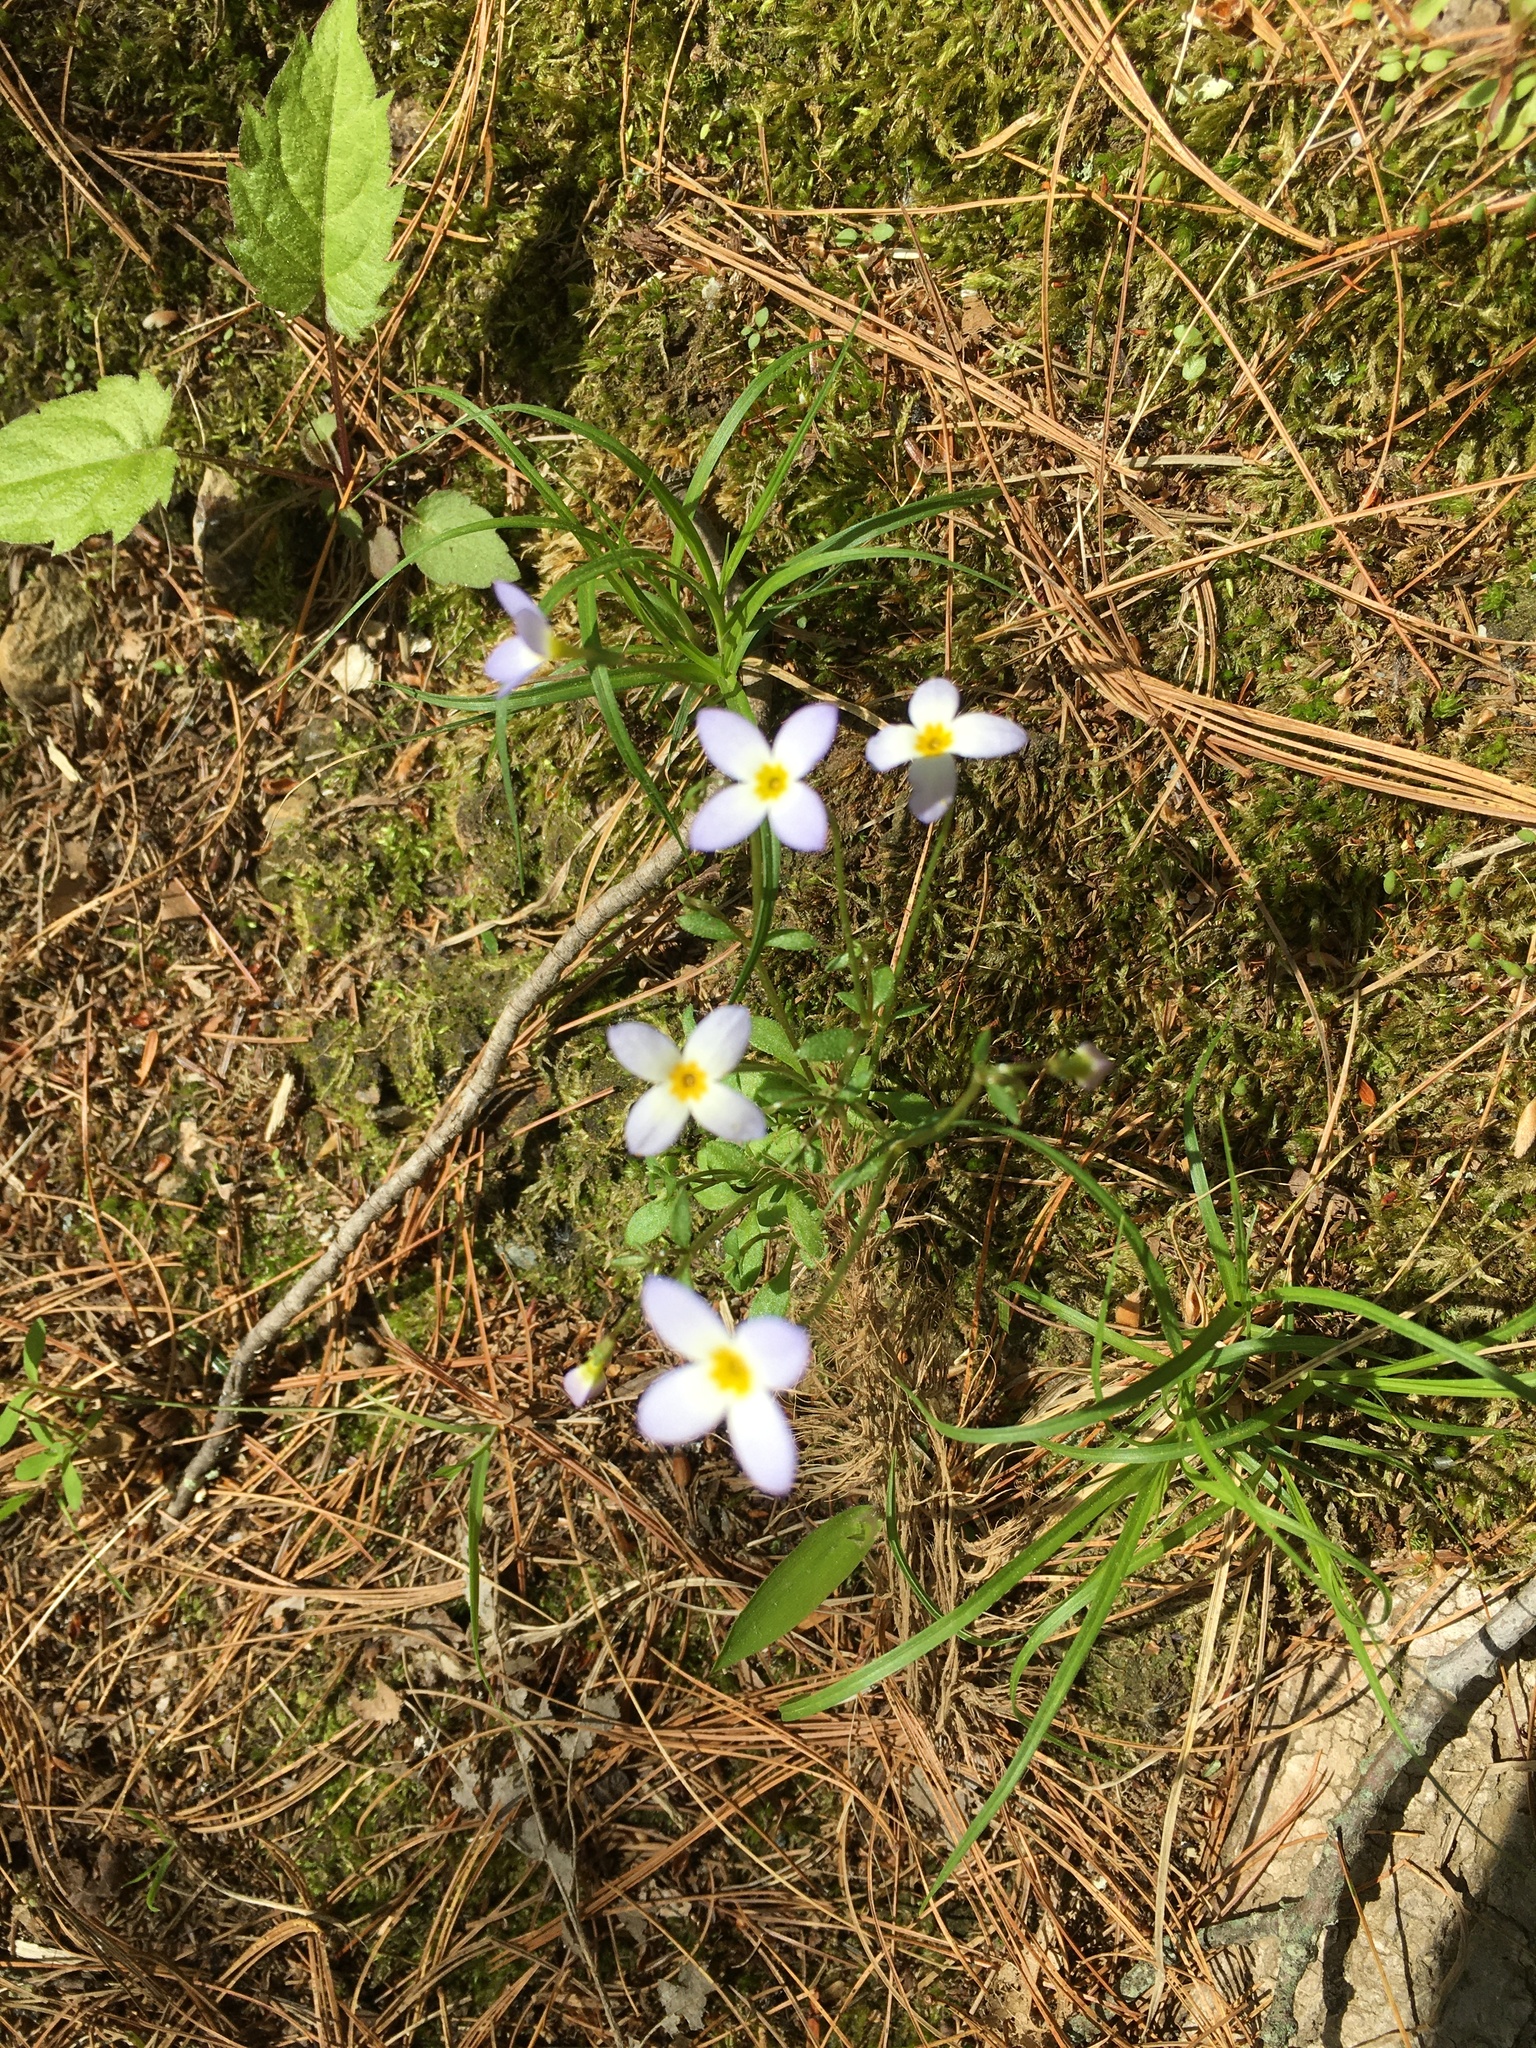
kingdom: Plantae
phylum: Tracheophyta
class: Magnoliopsida
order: Gentianales
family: Rubiaceae
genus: Houstonia
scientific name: Houstonia caerulea
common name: Bluets
